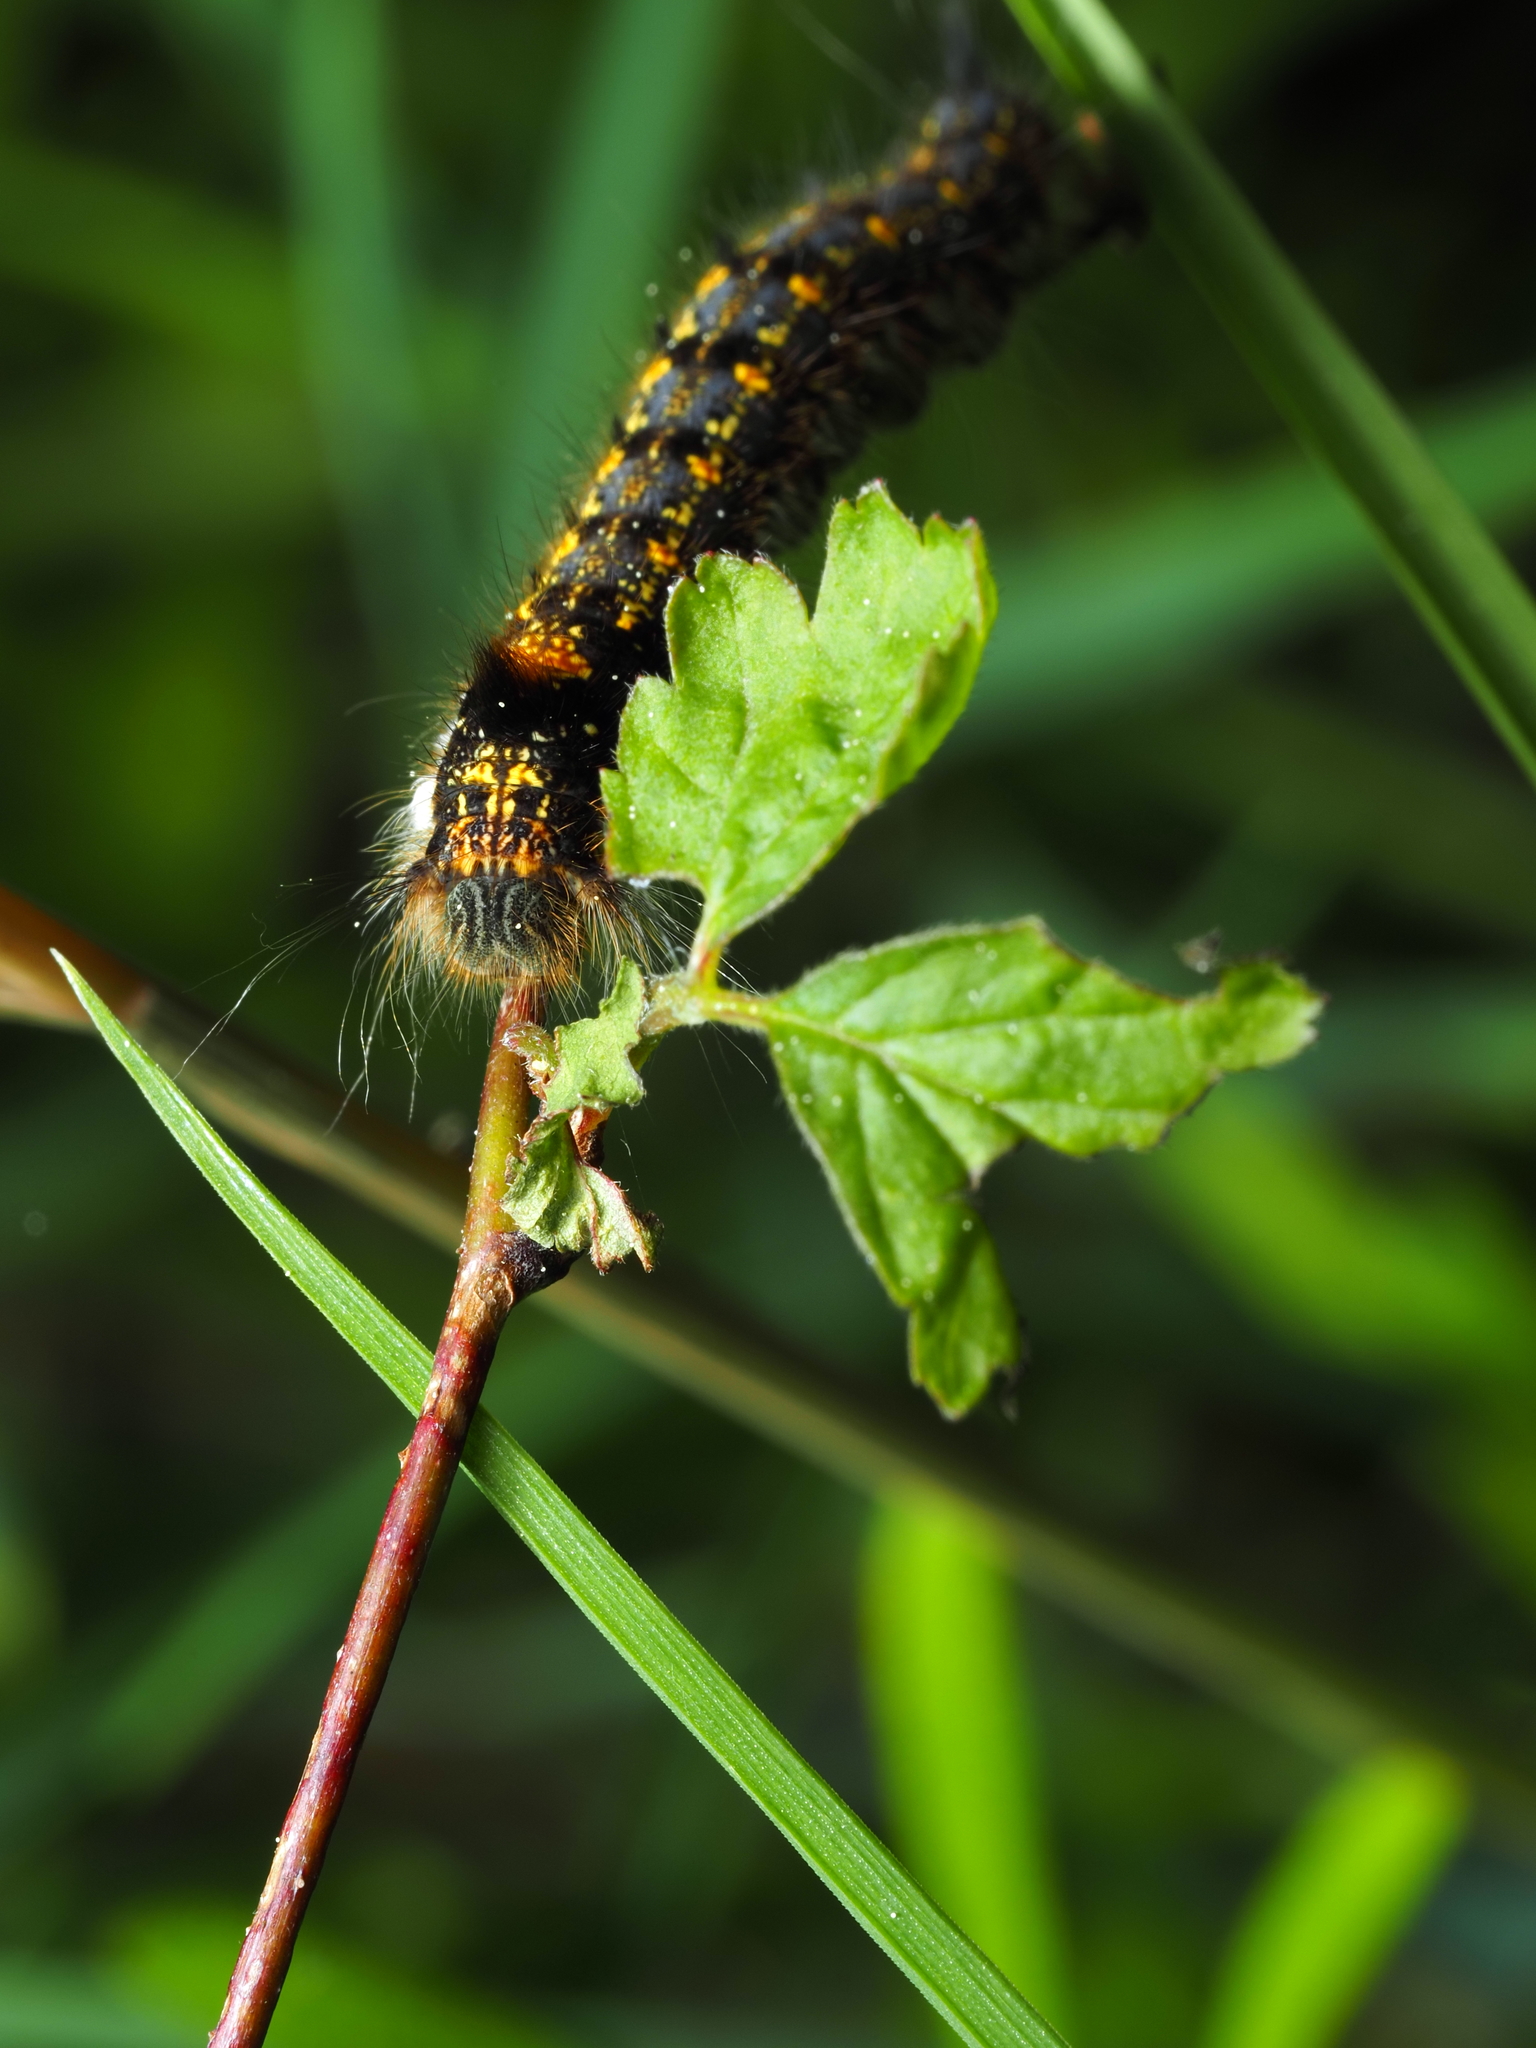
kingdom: Animalia
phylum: Arthropoda
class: Insecta
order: Lepidoptera
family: Lasiocampidae
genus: Euthrix
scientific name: Euthrix potatoria
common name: Drinker
